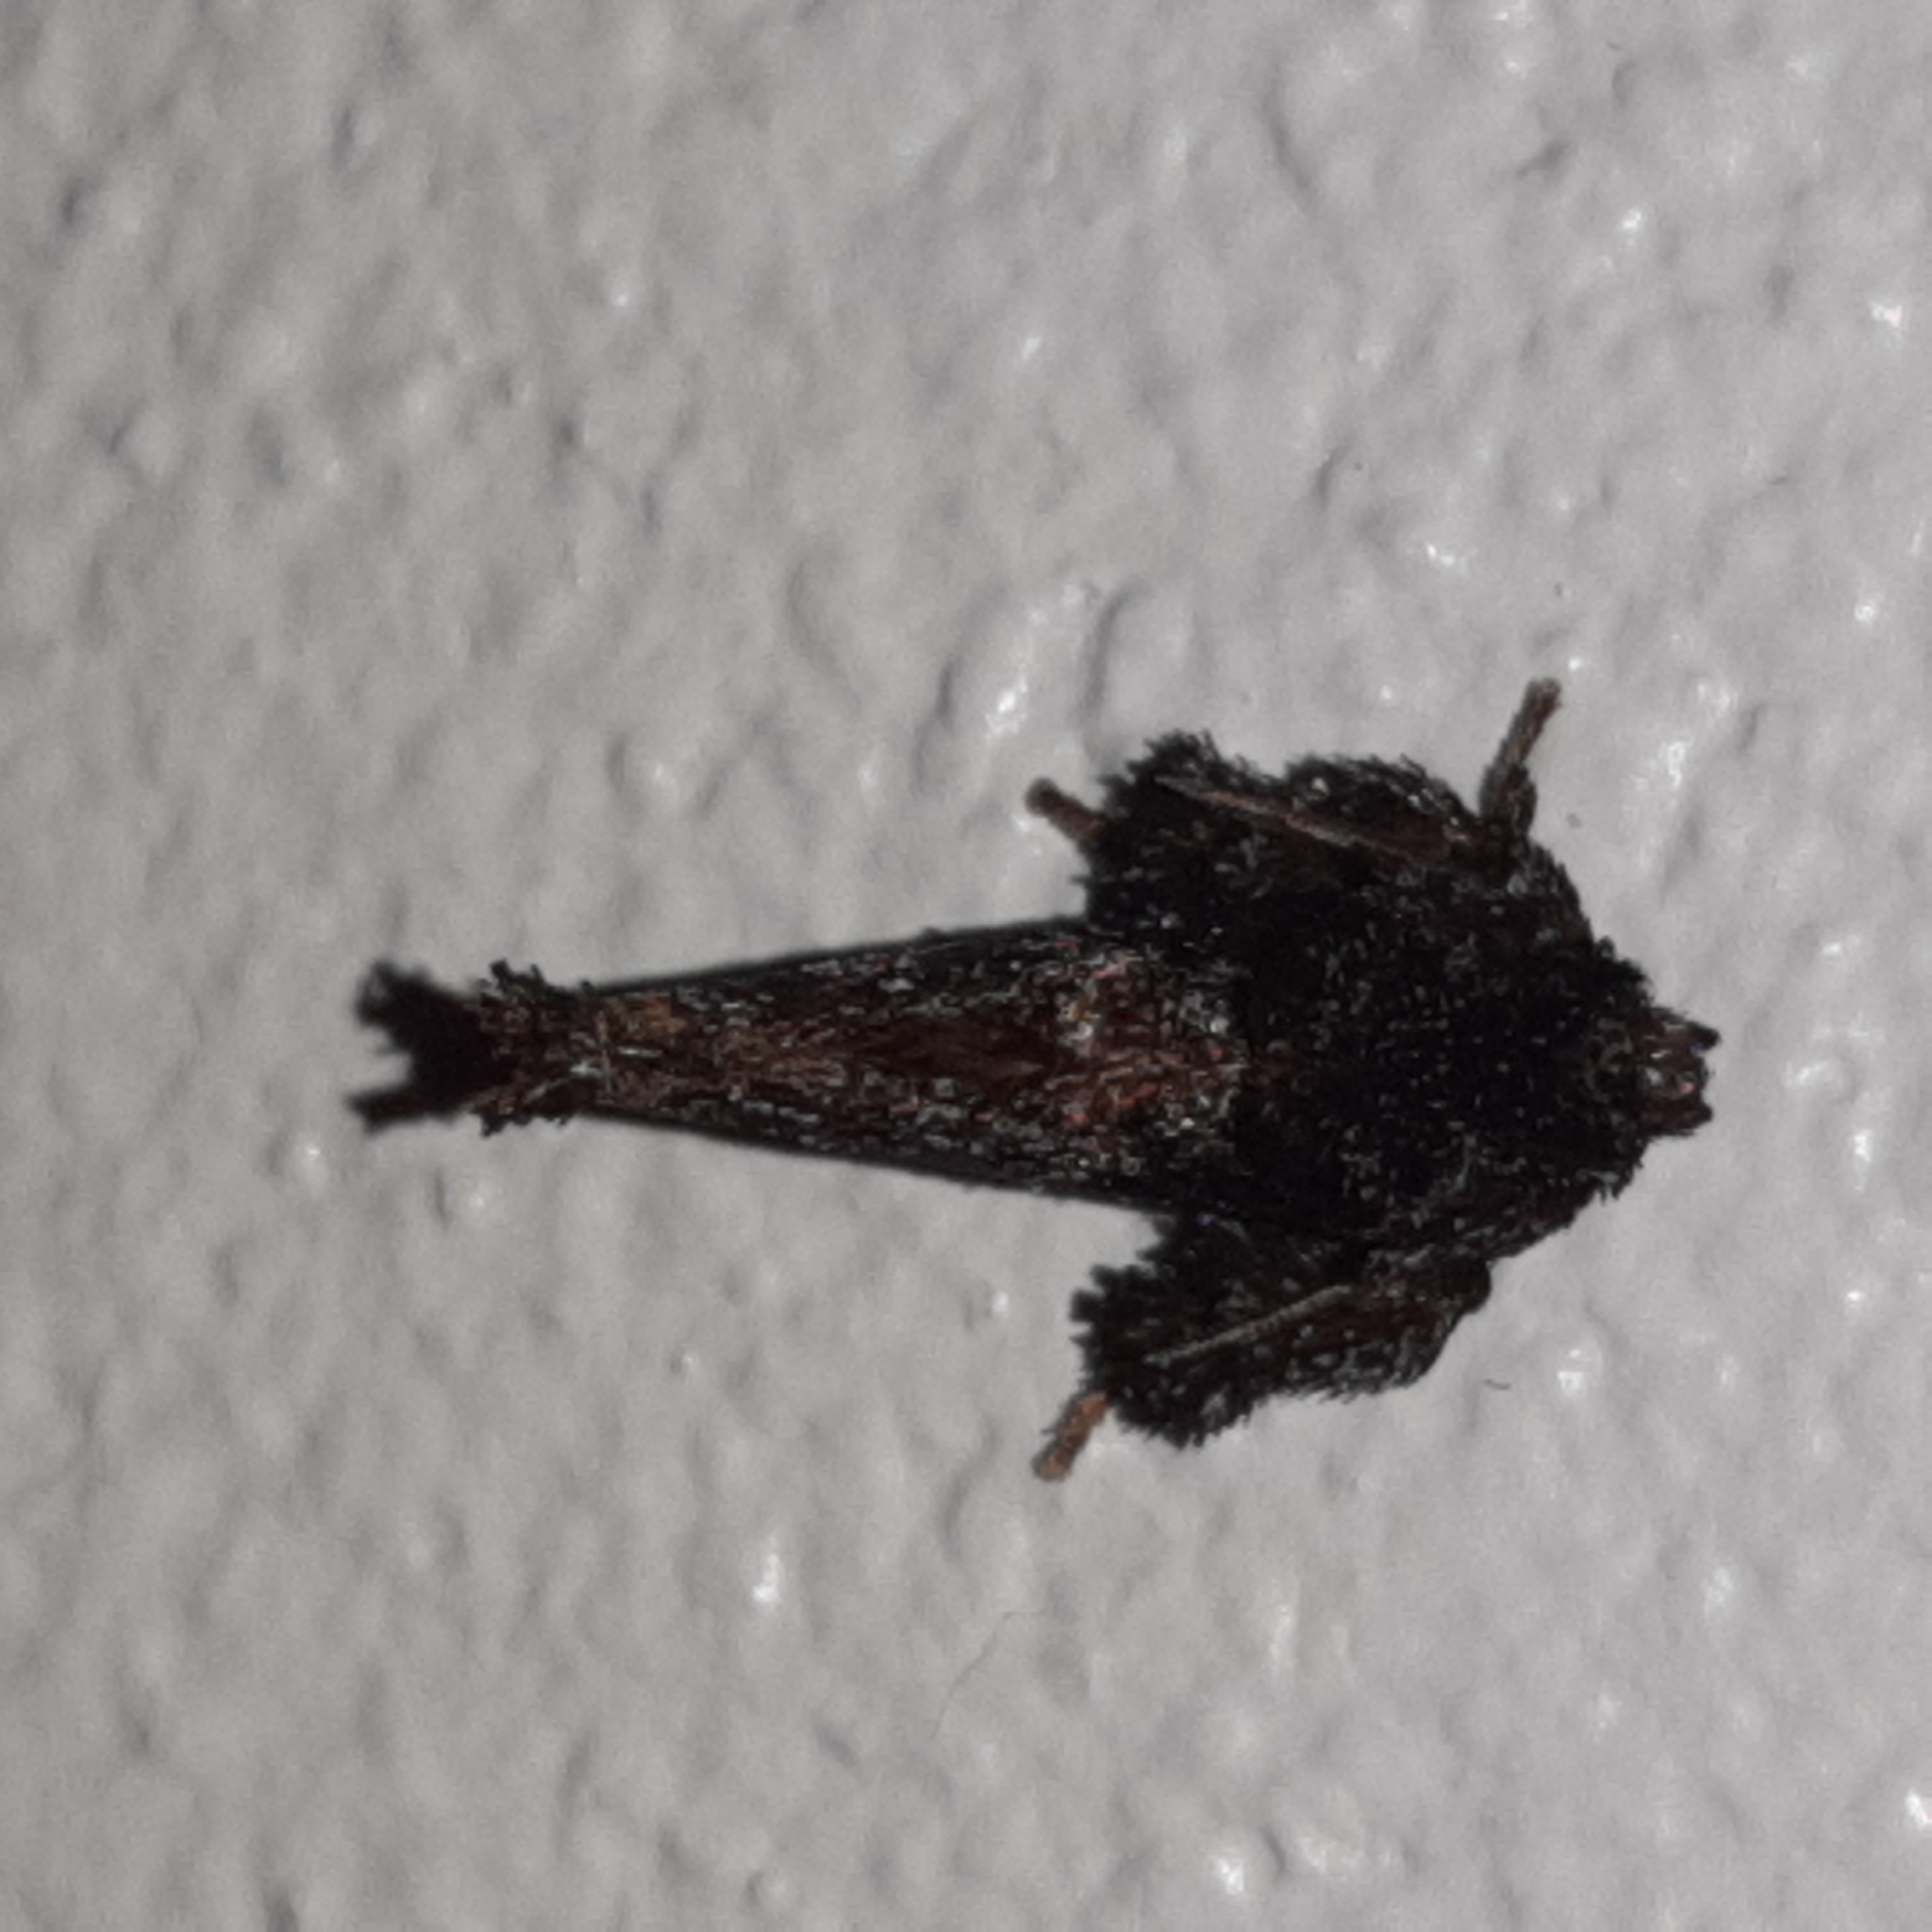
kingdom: Animalia
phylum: Arthropoda
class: Insecta
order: Lepidoptera
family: Limacodidae
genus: Isochaetes
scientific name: Isochaetes dwagsi
